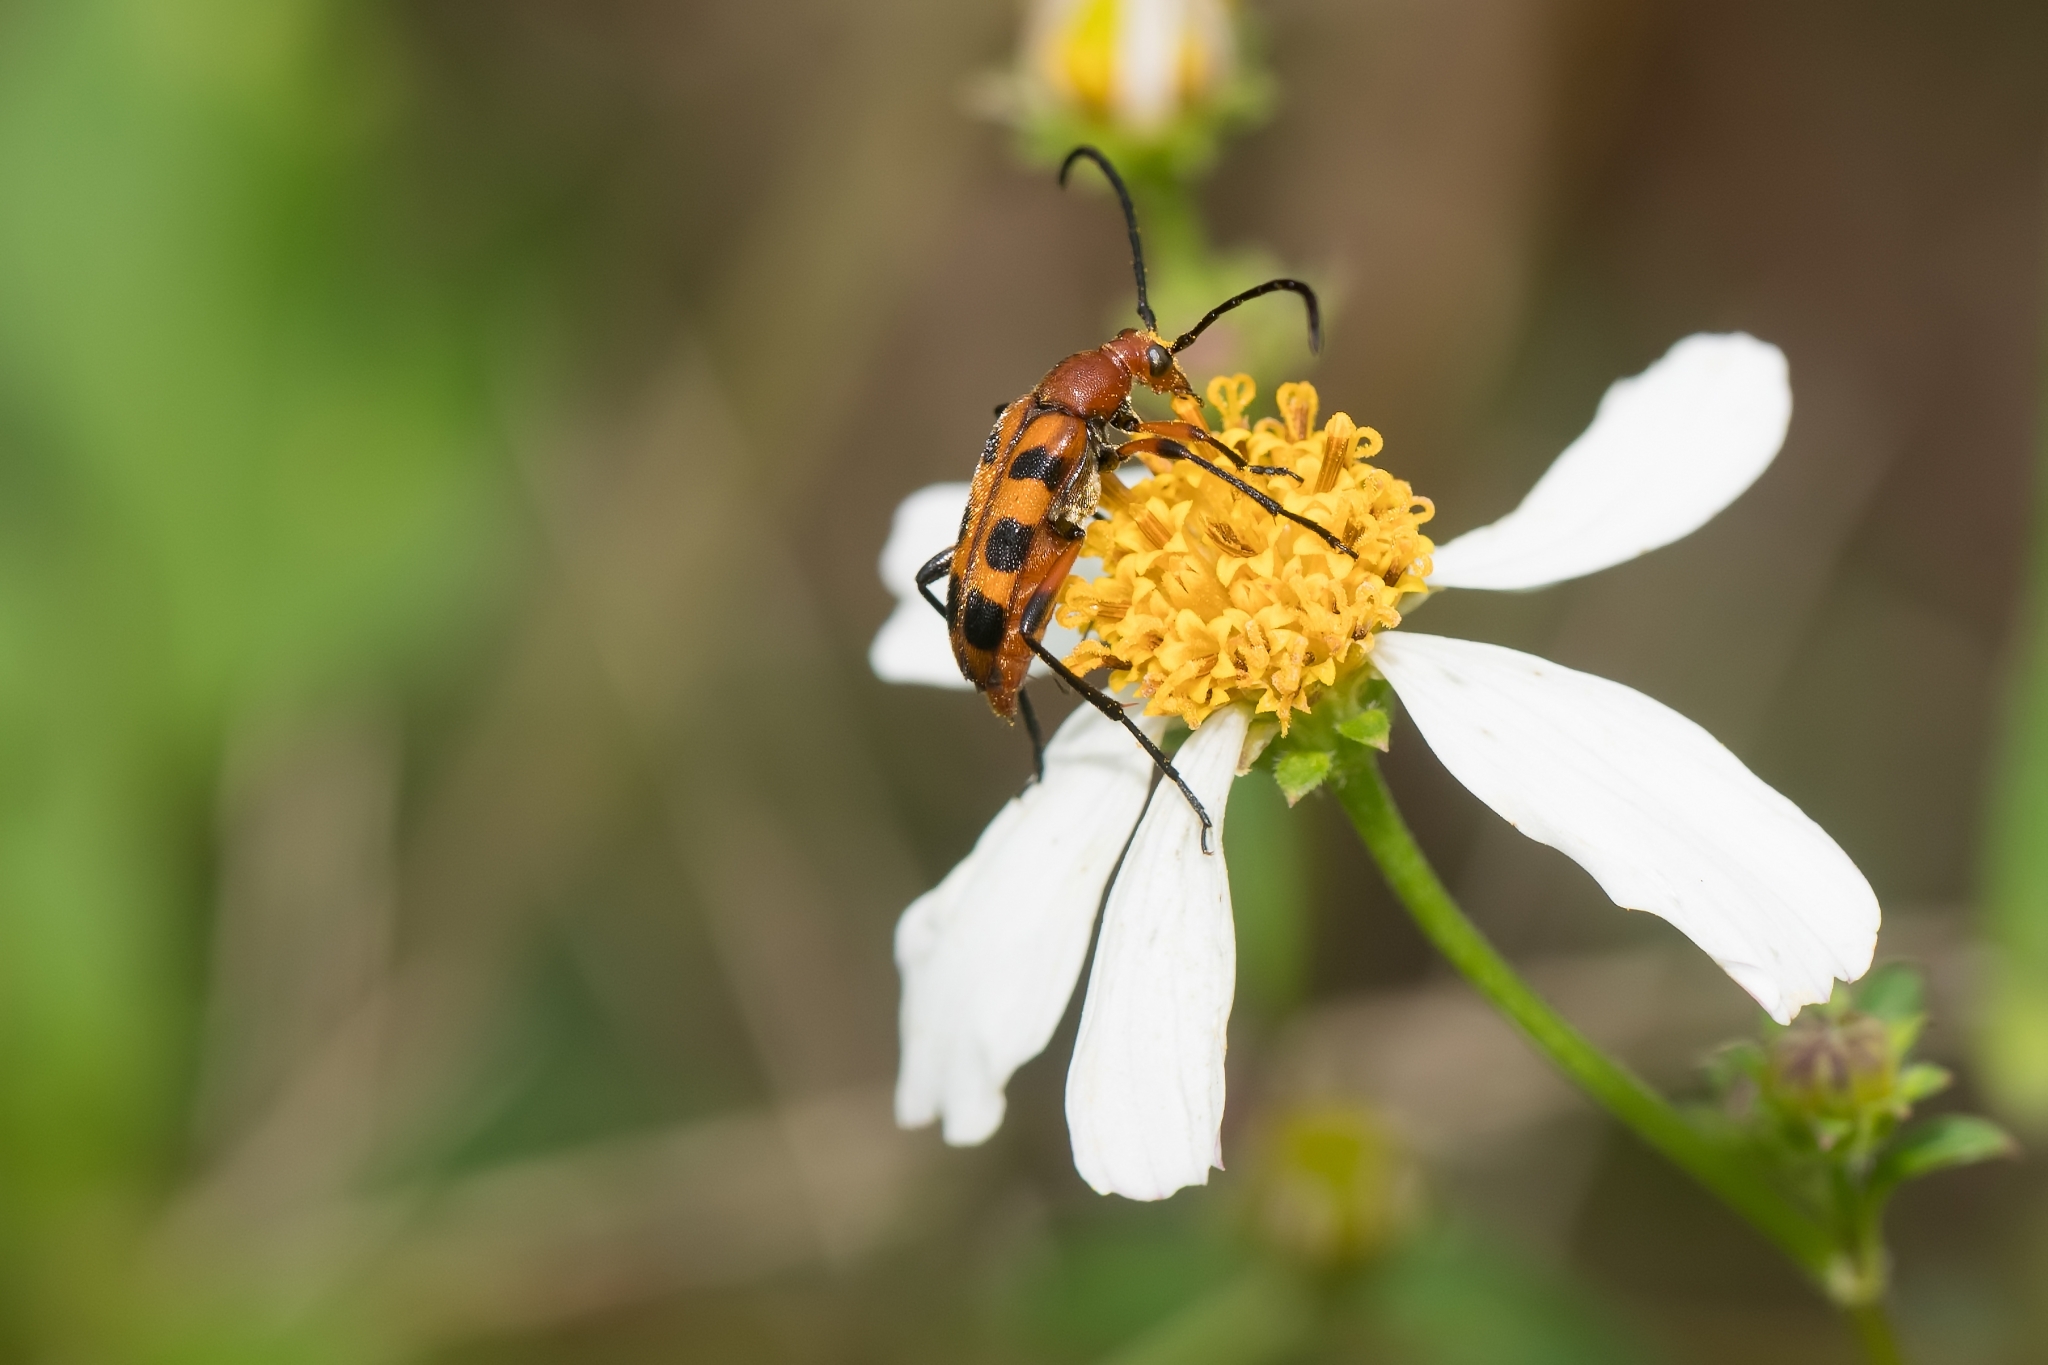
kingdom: Animalia
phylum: Arthropoda
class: Insecta
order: Coleoptera
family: Cerambycidae
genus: Strangalia
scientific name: Strangalia sexnotata
